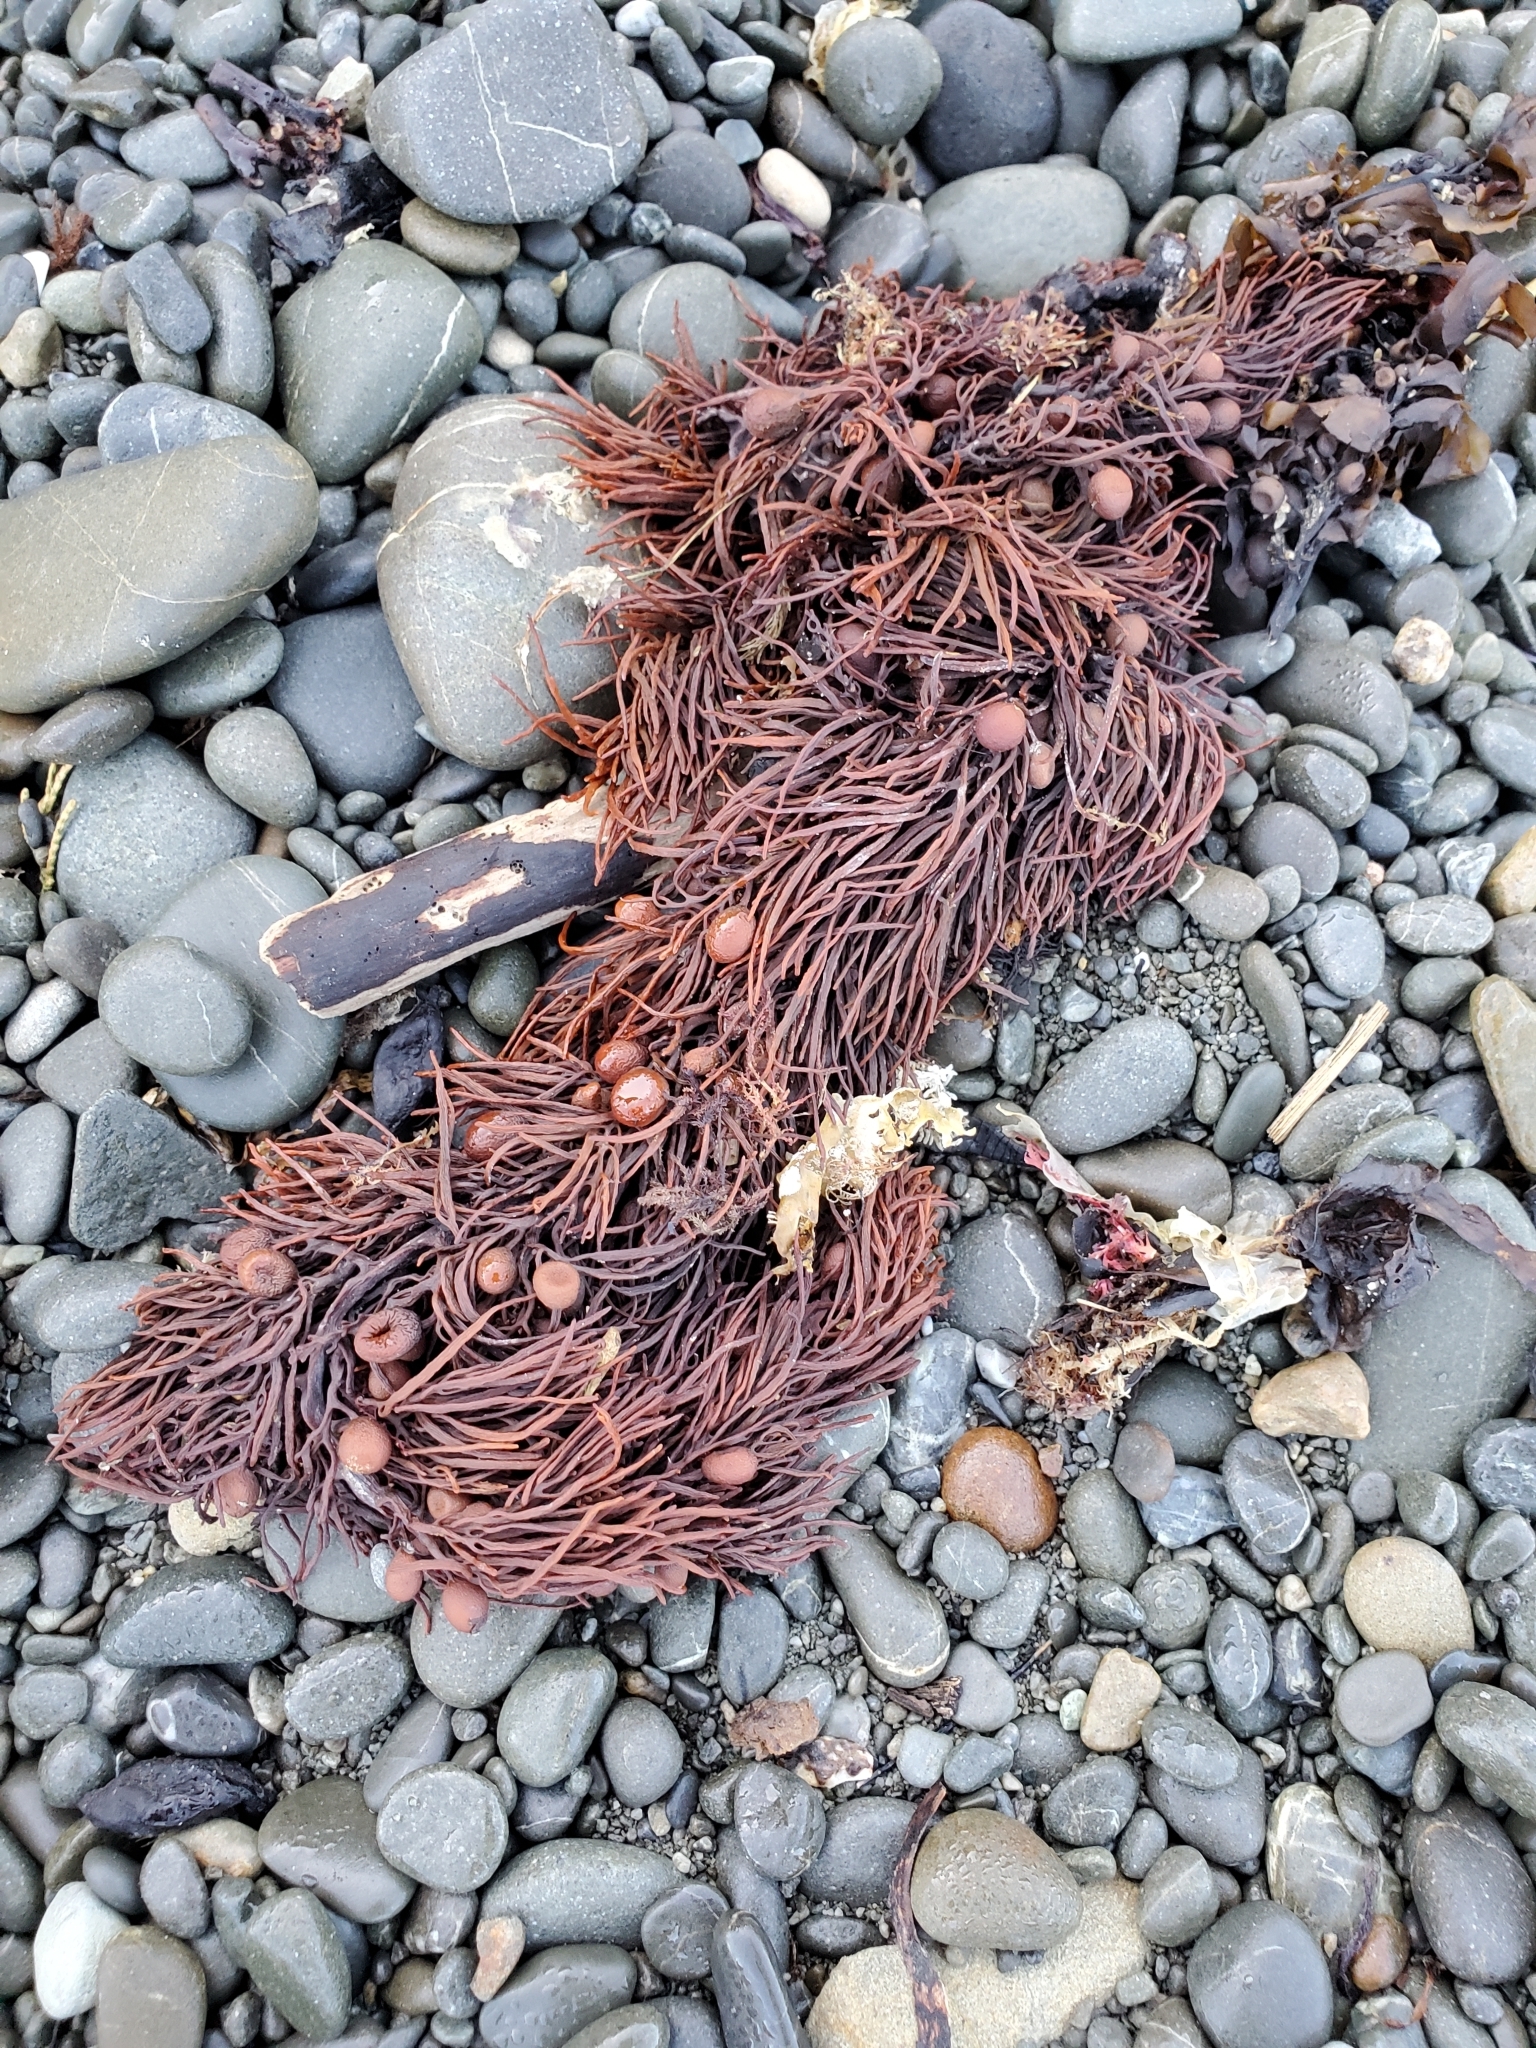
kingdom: Chromista
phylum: Ochrophyta
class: Phaeophyceae
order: Fucales
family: Sargassaceae
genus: Cystophora
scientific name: Cystophora retroflexa
